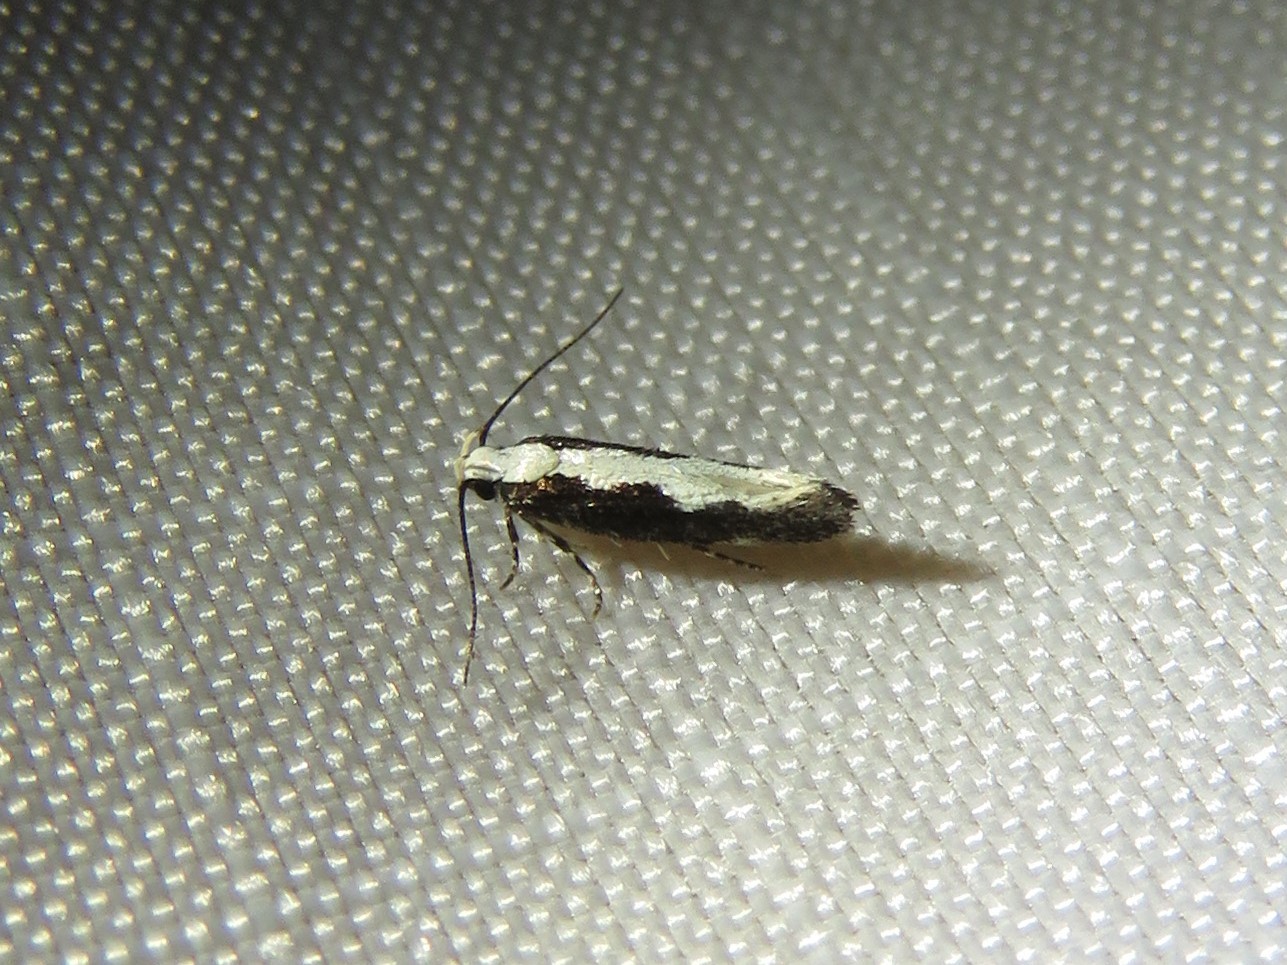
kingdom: Animalia
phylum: Arthropoda
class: Insecta
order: Lepidoptera
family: Gelechiidae
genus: Aristotelia
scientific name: Aristotelia corallina
